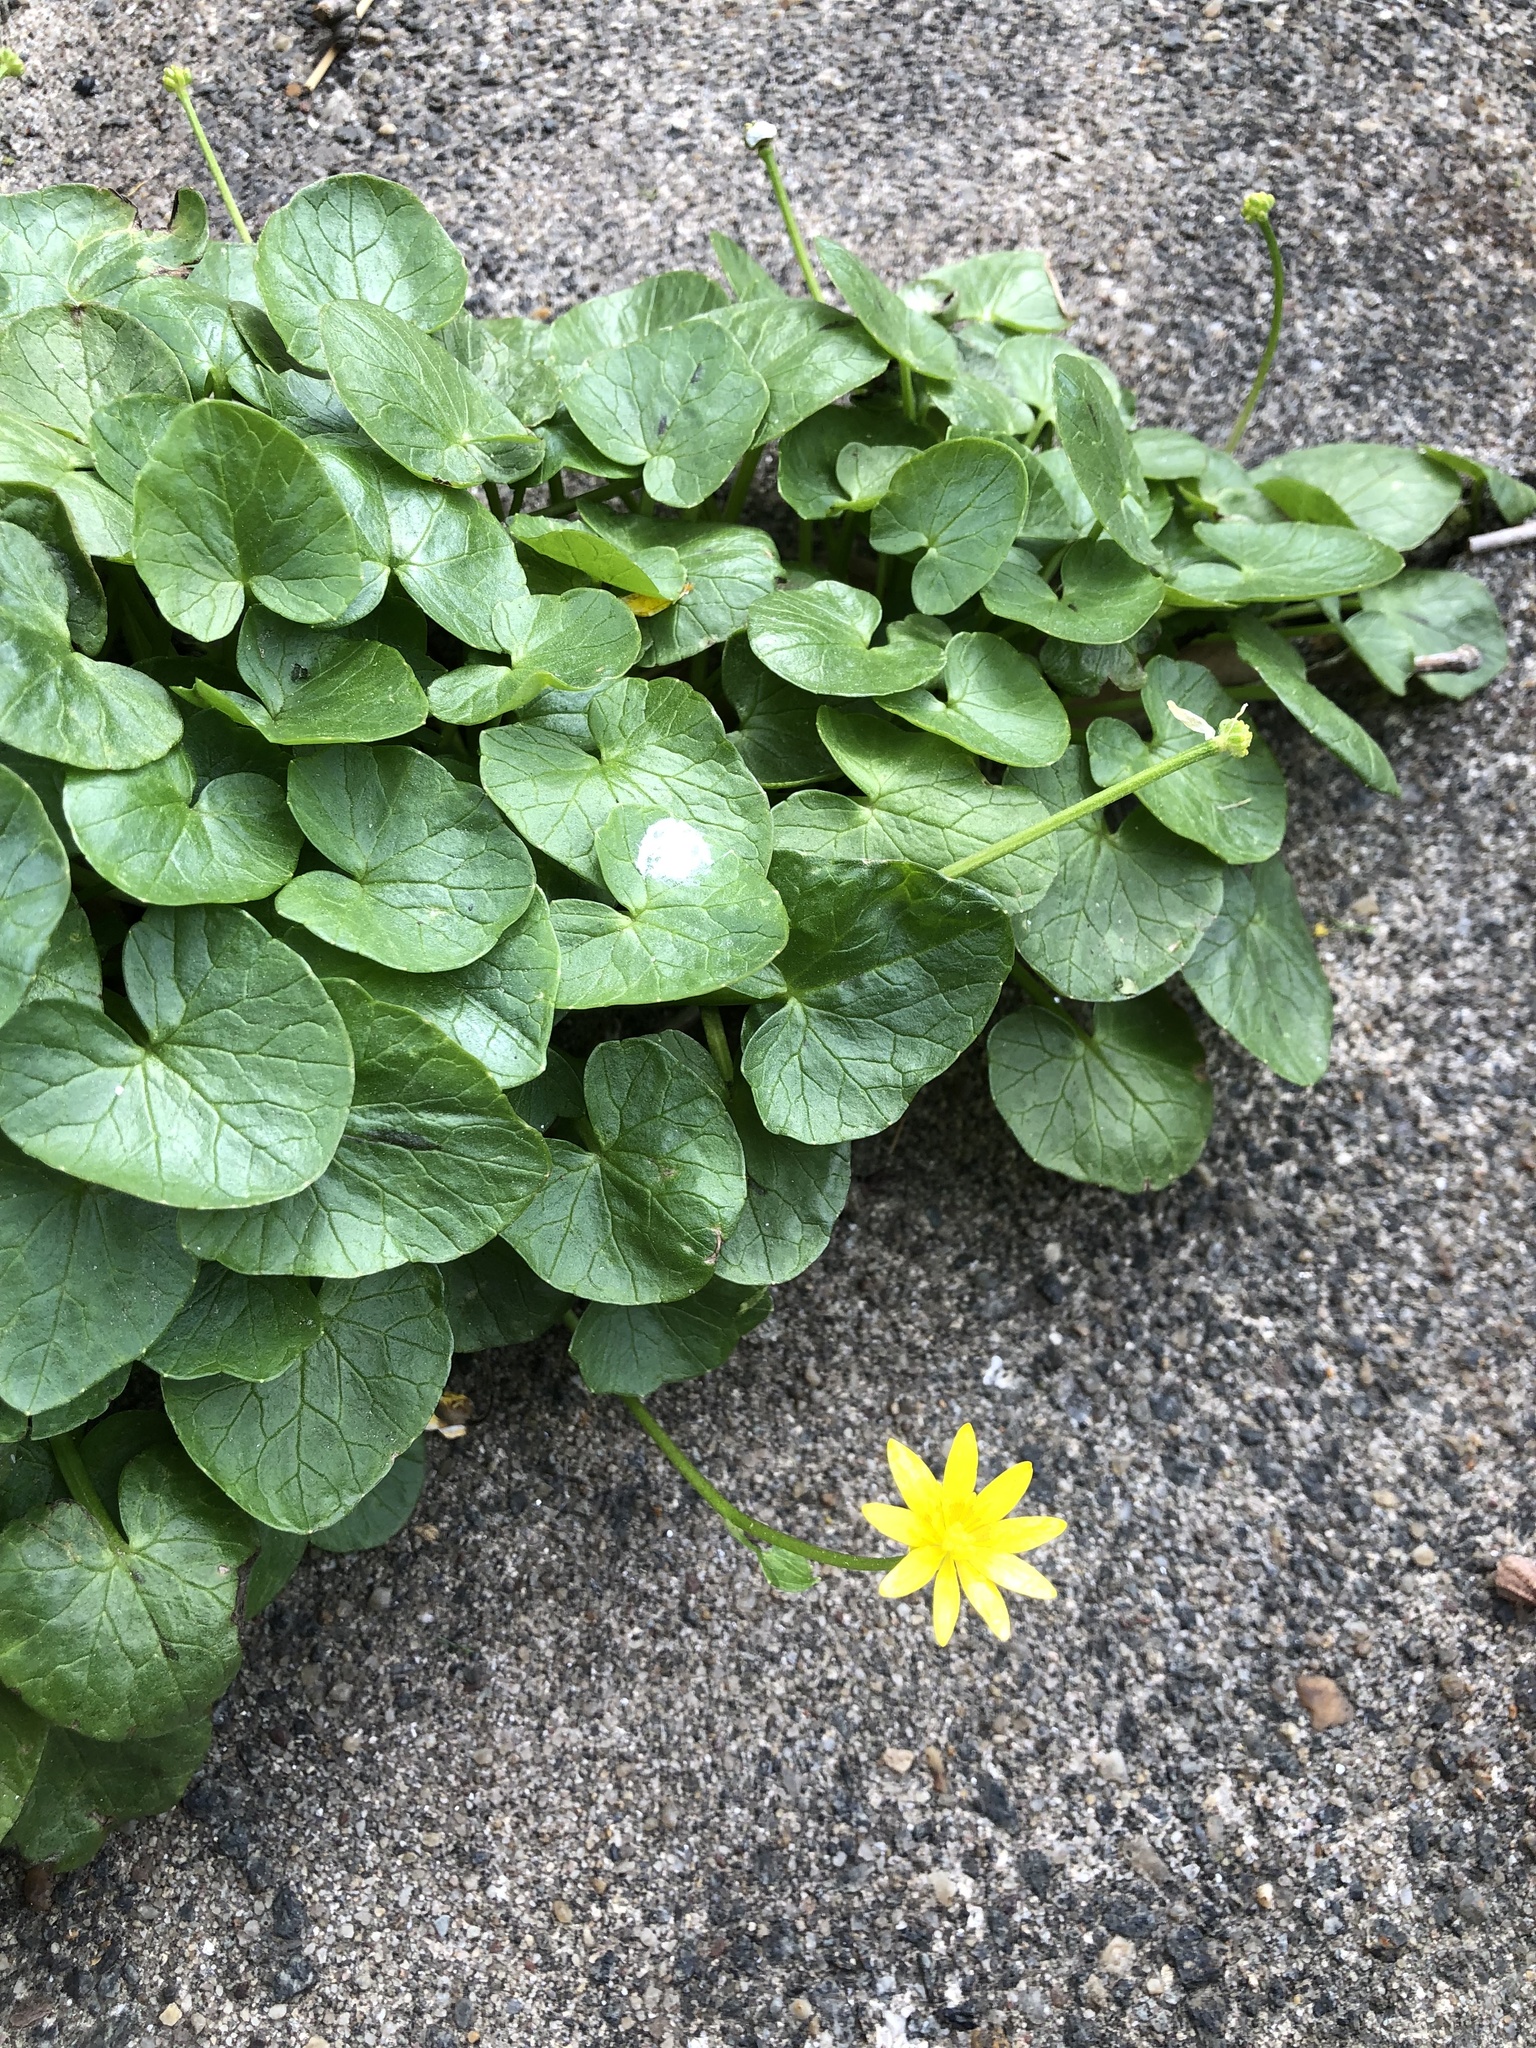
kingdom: Plantae
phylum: Tracheophyta
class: Magnoliopsida
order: Ranunculales
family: Ranunculaceae
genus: Ficaria
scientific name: Ficaria verna
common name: Lesser celandine
